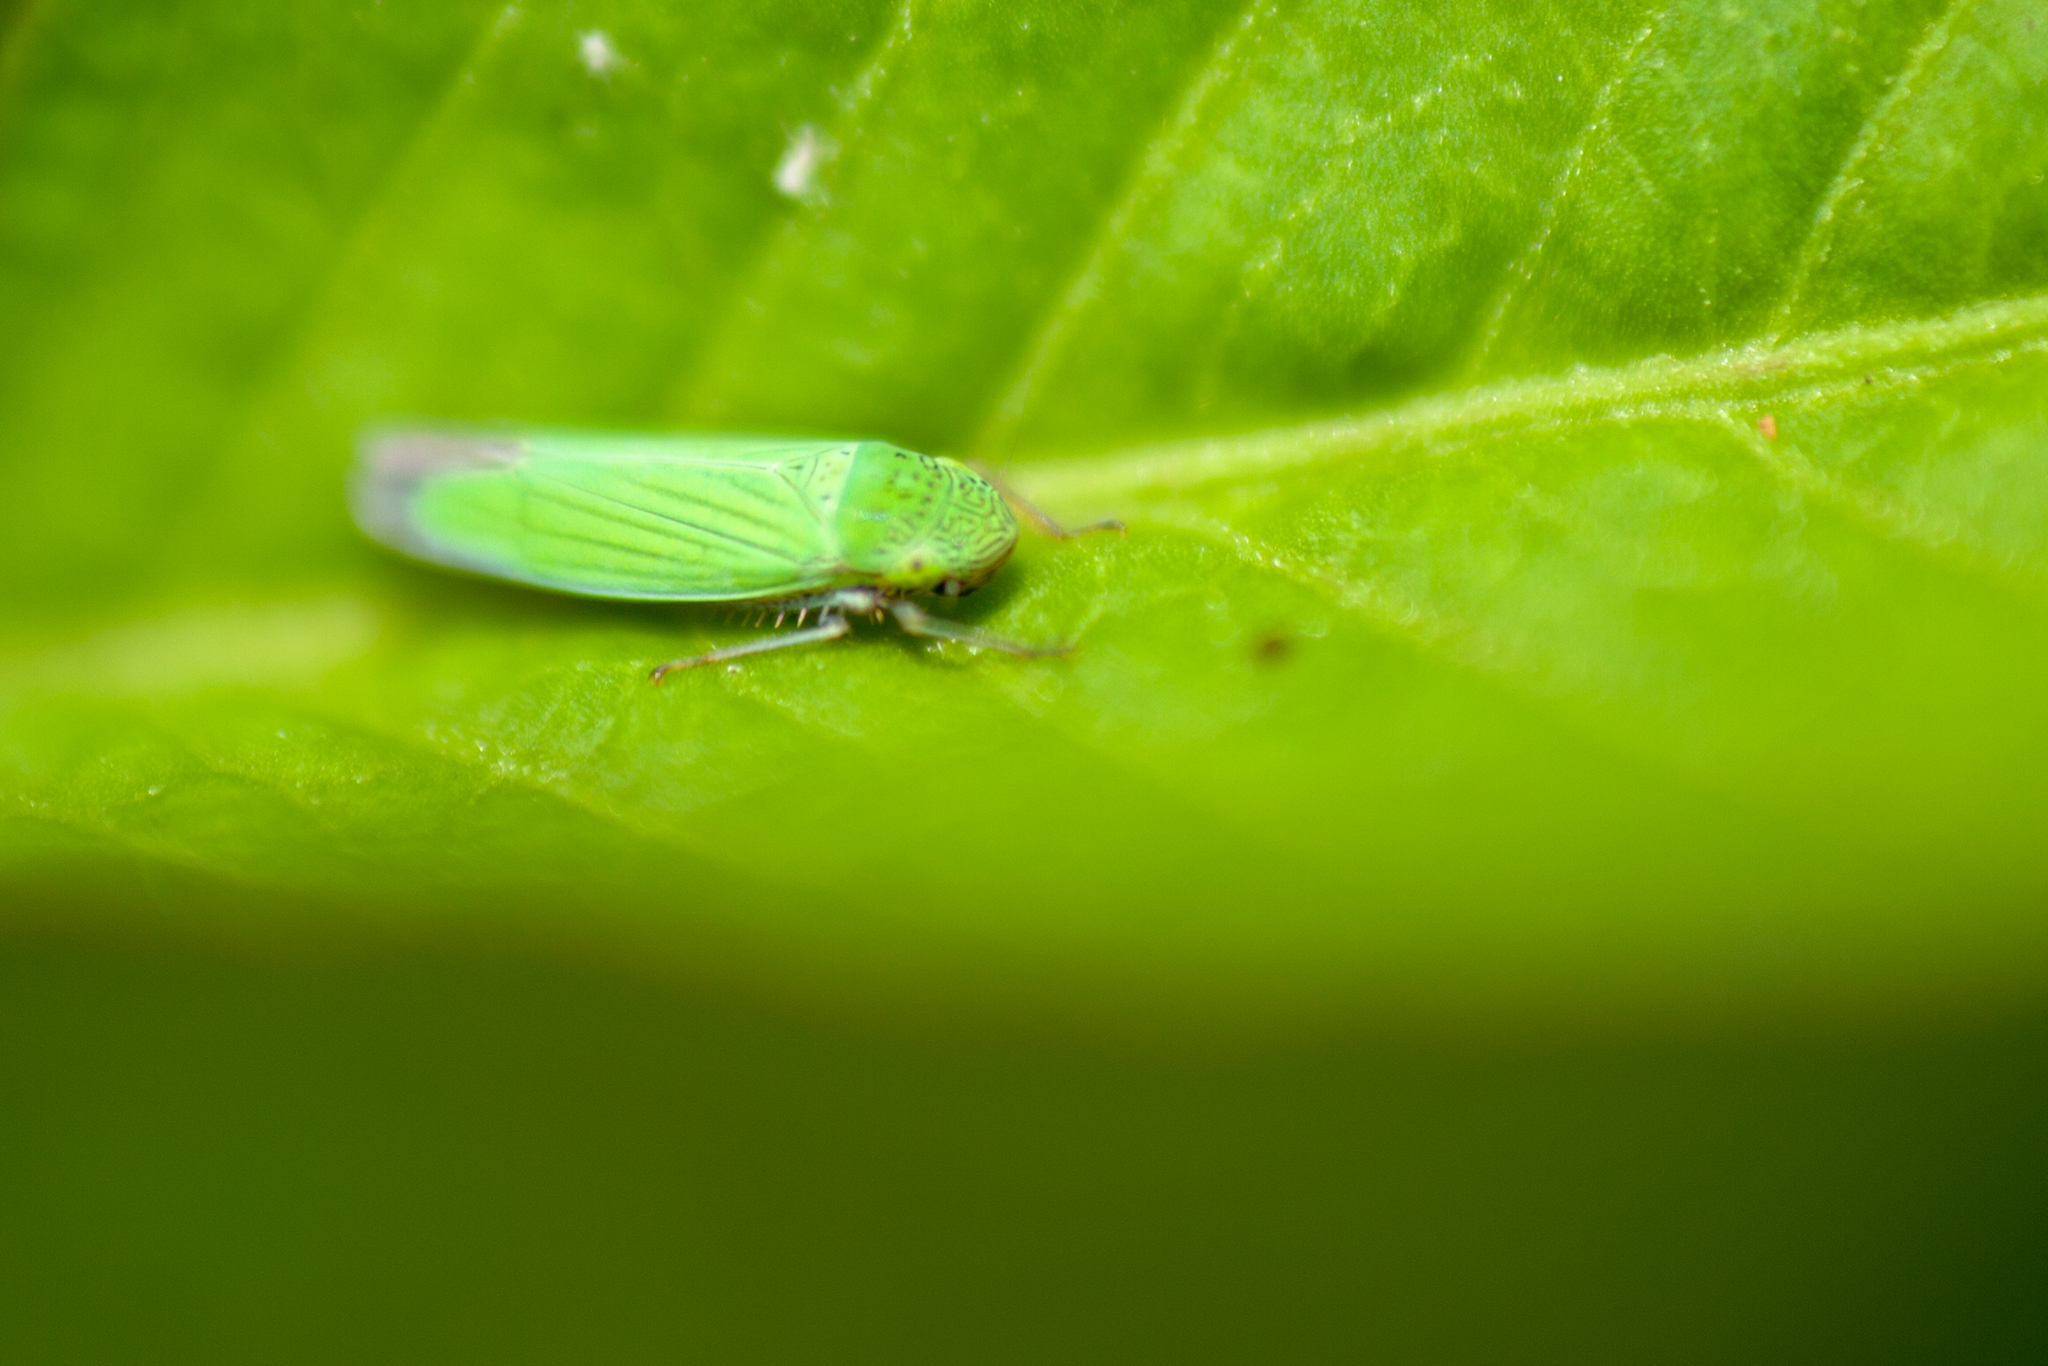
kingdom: Animalia
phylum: Arthropoda
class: Insecta
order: Hemiptera
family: Cicadellidae
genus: Hortensia
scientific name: Hortensia similis
